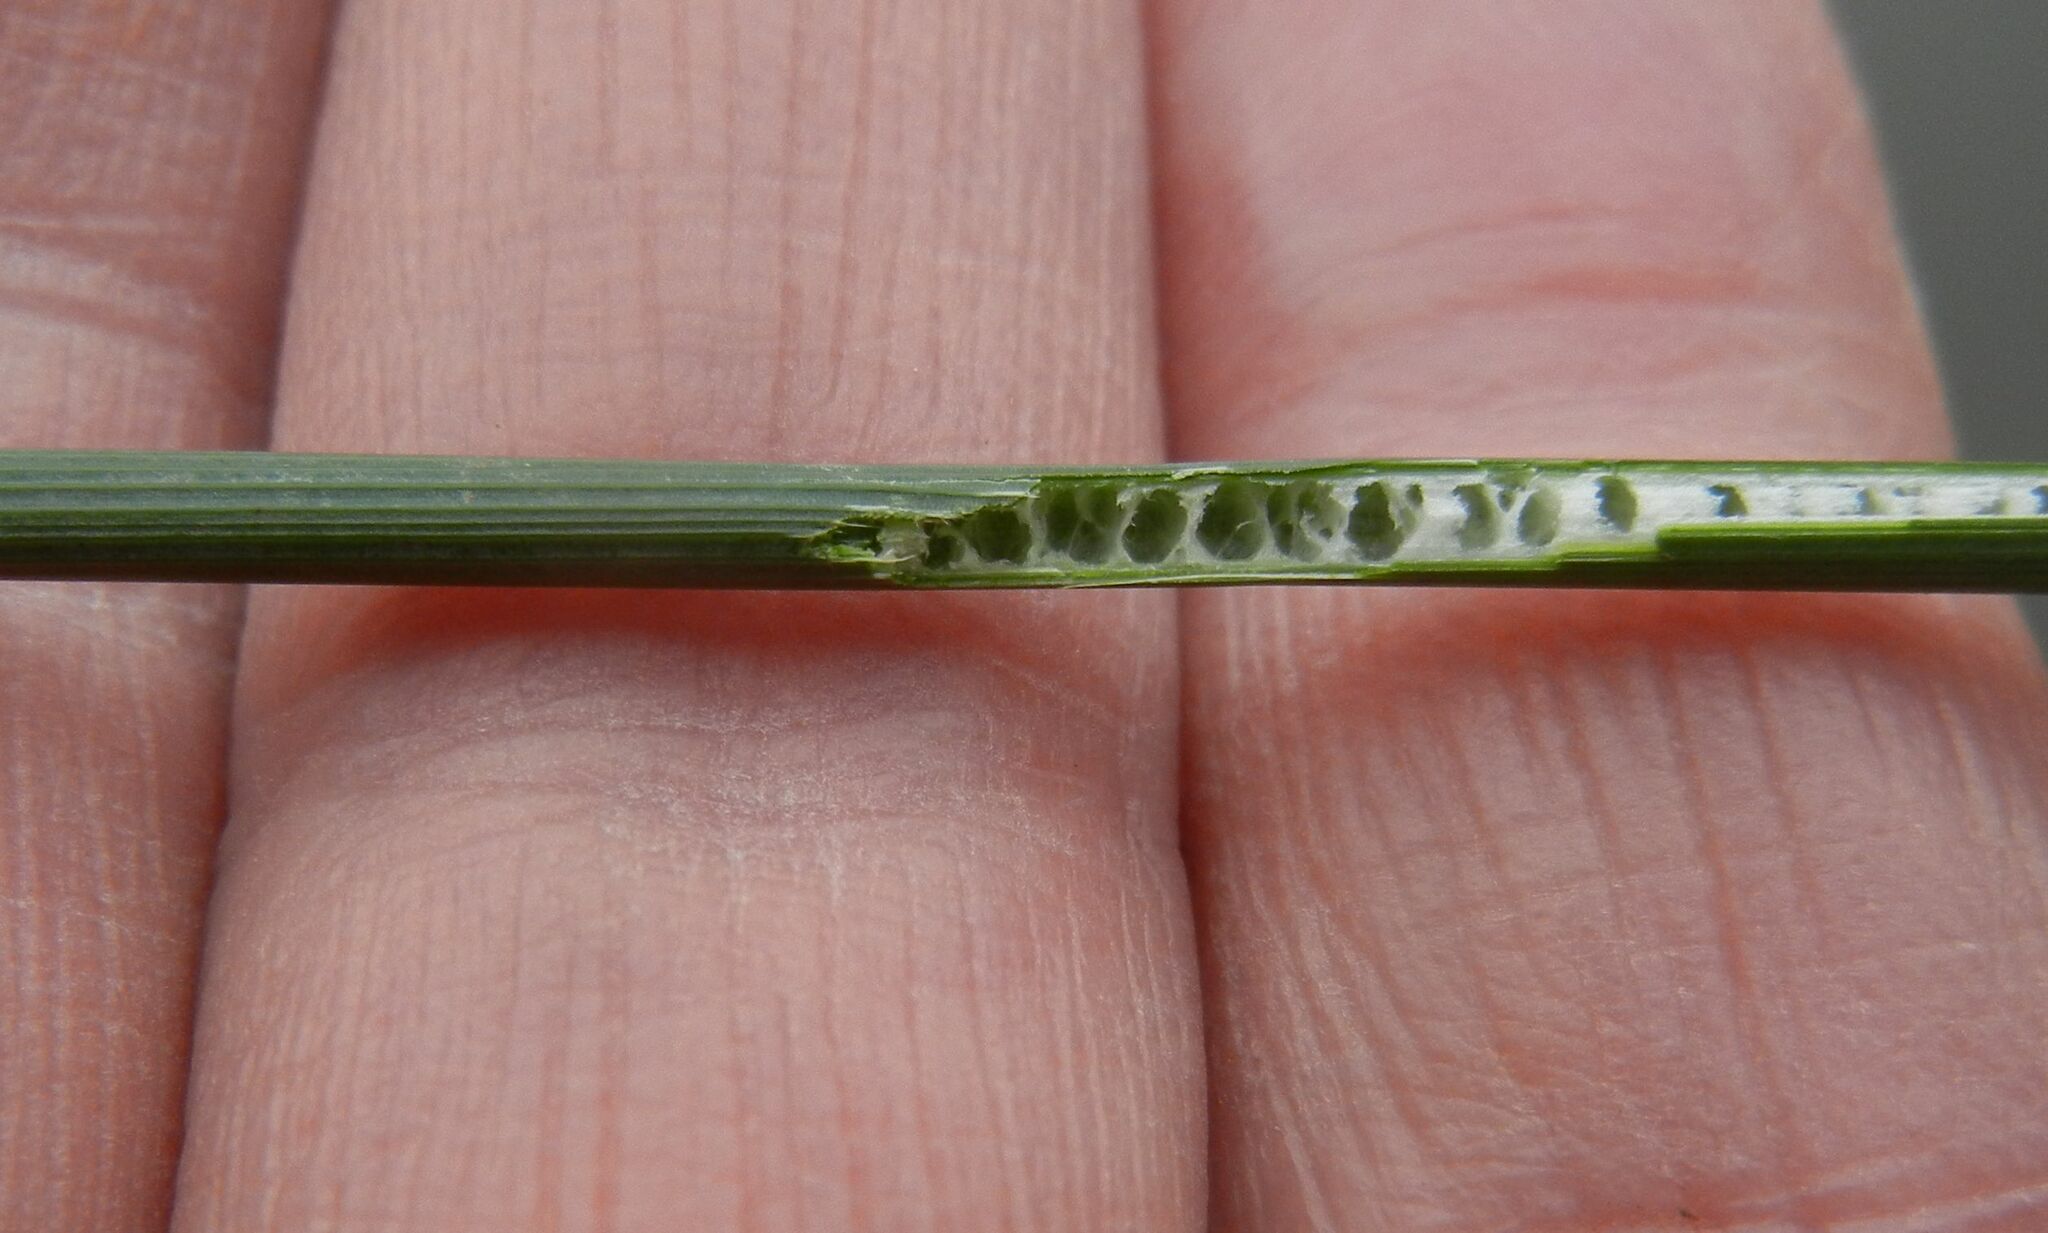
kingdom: Plantae
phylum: Tracheophyta
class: Liliopsida
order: Poales
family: Juncaceae
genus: Juncus
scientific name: Juncus inflexus
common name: Hard rush
